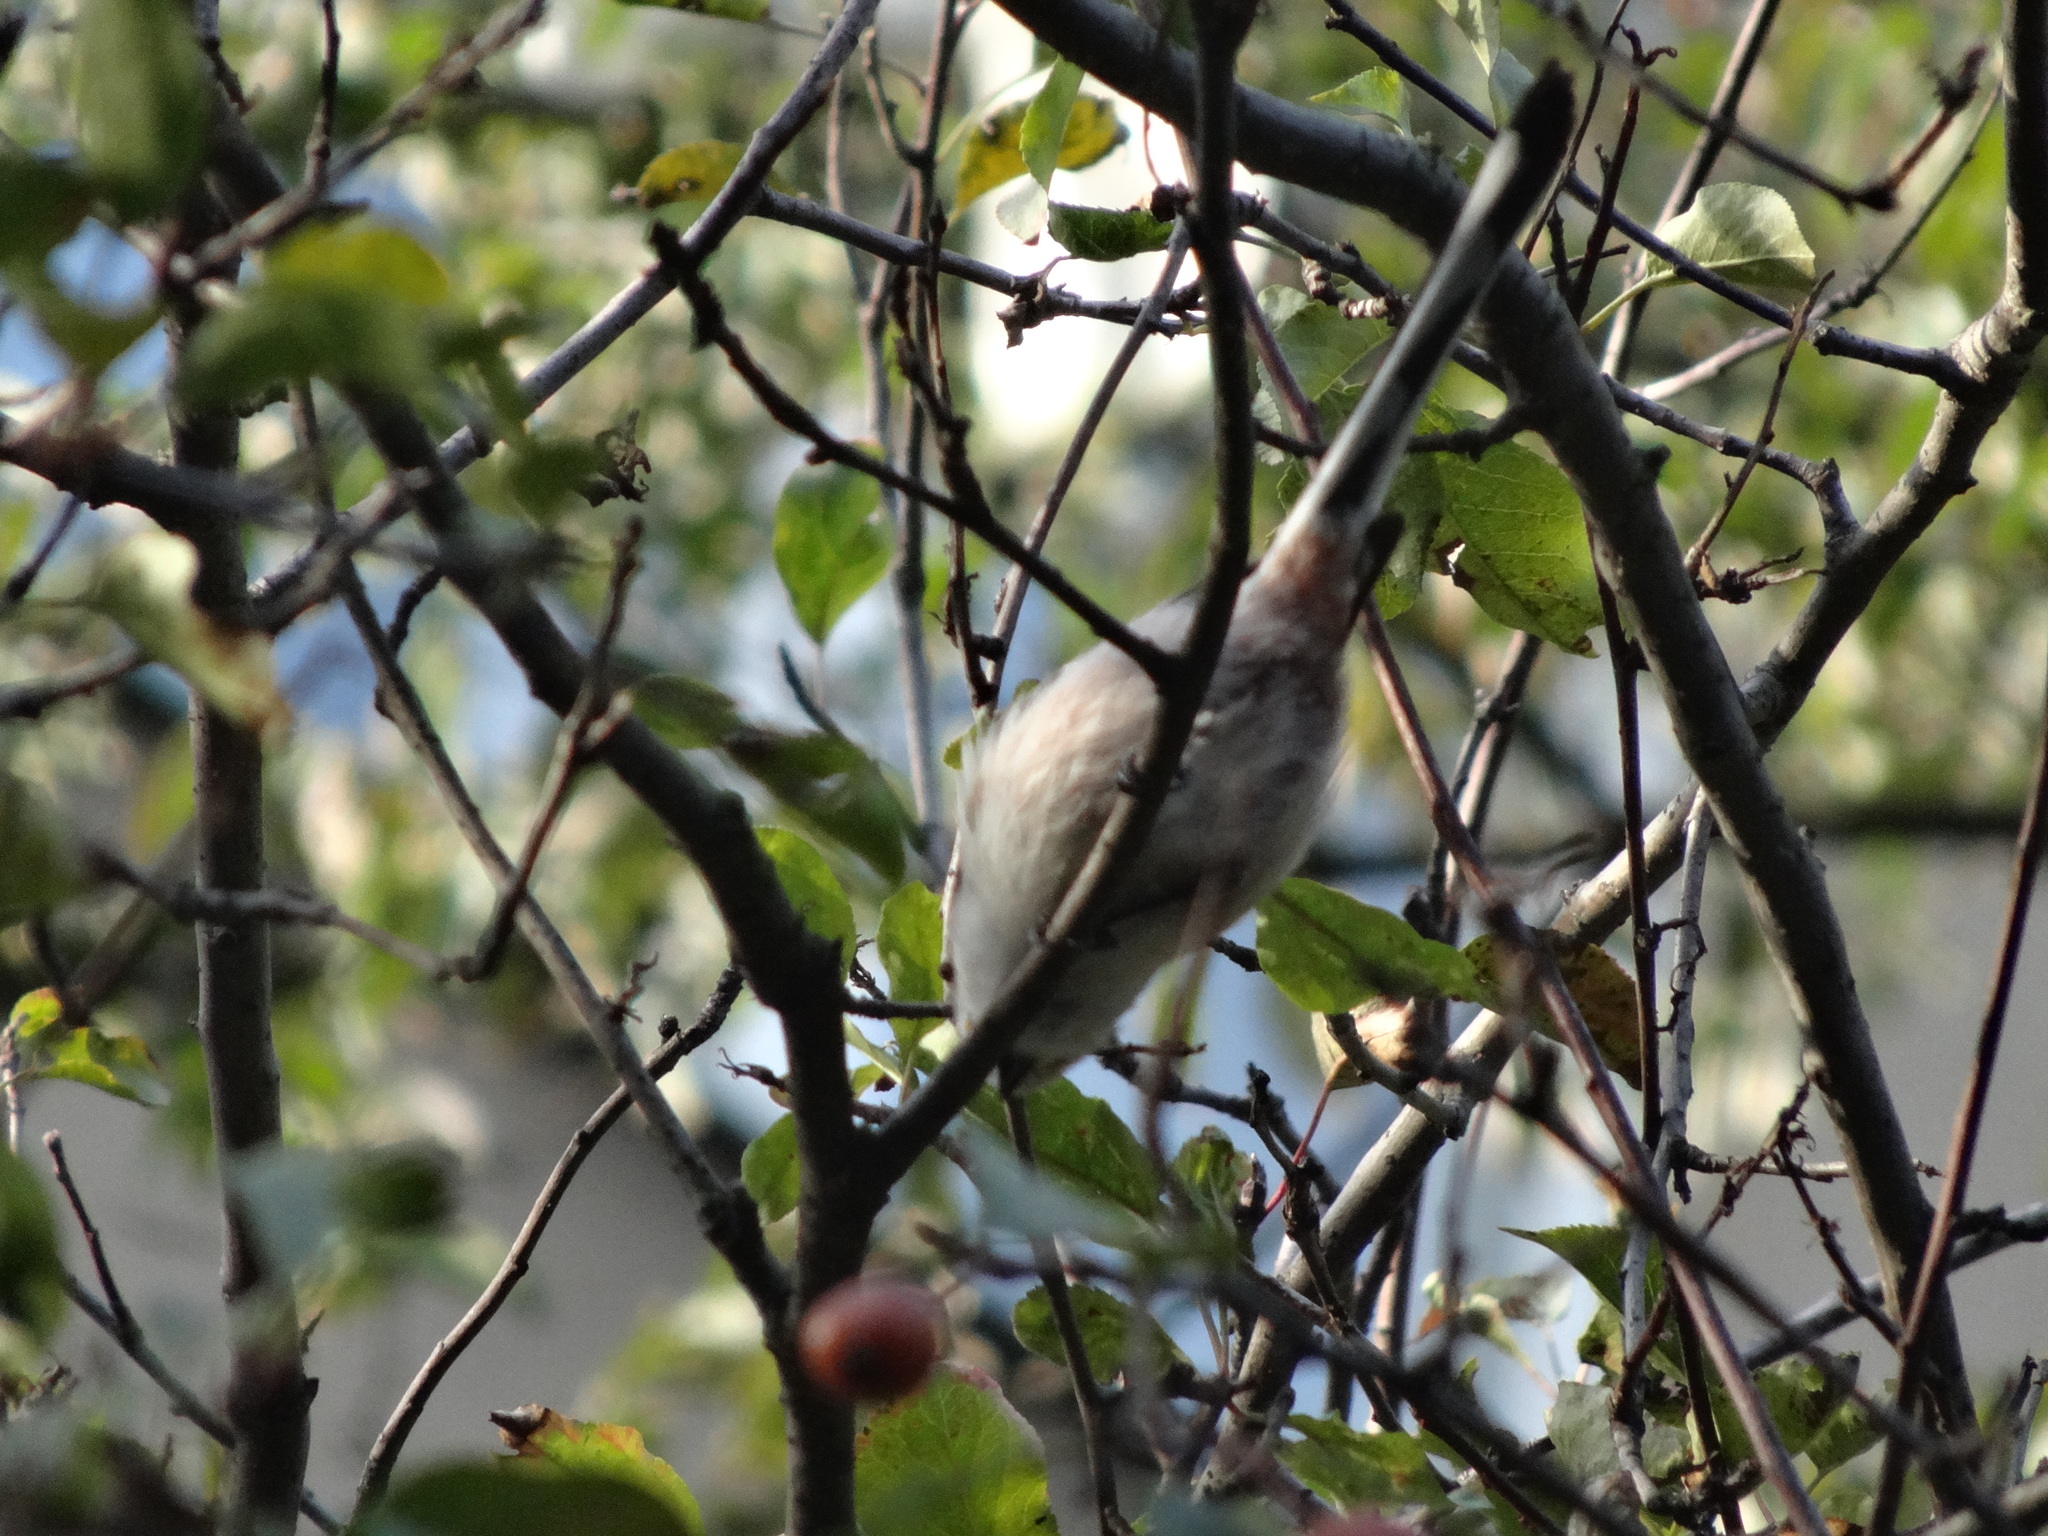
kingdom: Animalia
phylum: Chordata
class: Aves
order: Passeriformes
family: Aegithalidae
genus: Aegithalos
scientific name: Aegithalos caudatus
